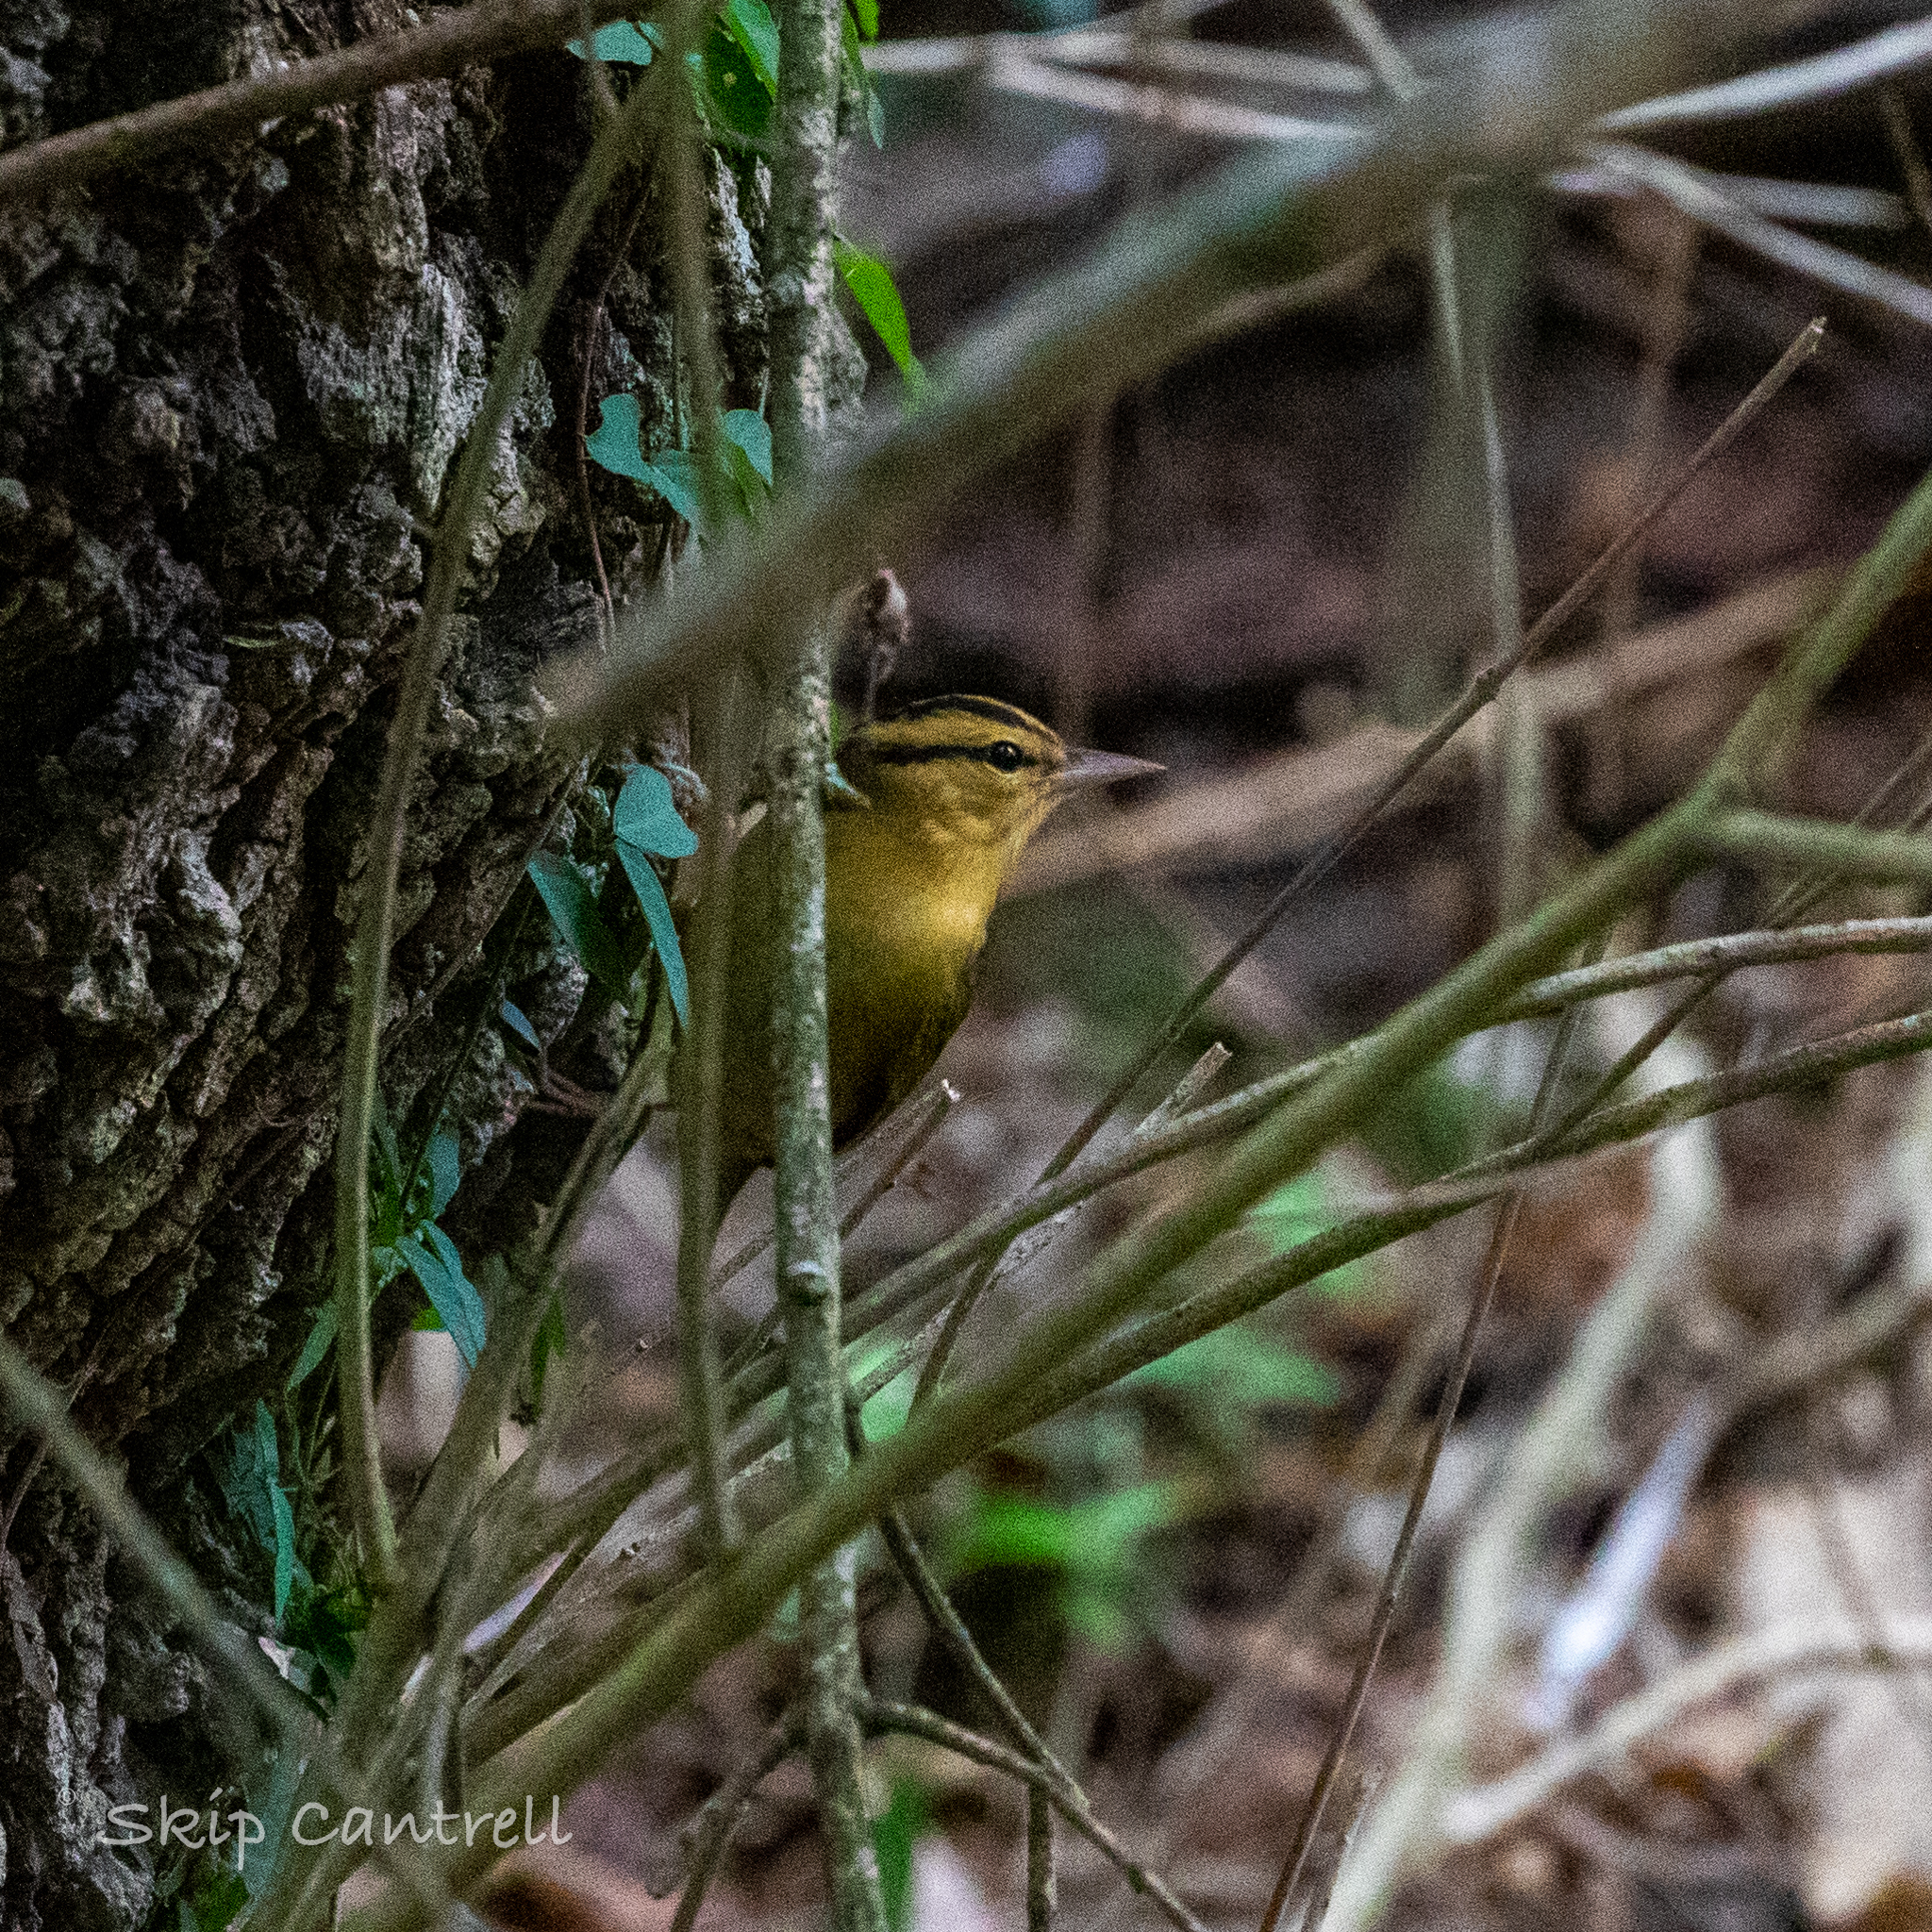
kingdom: Animalia
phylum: Chordata
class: Aves
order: Passeriformes
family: Parulidae
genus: Helmitheros
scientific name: Helmitheros vermivorum
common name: Worm-eating warbler
